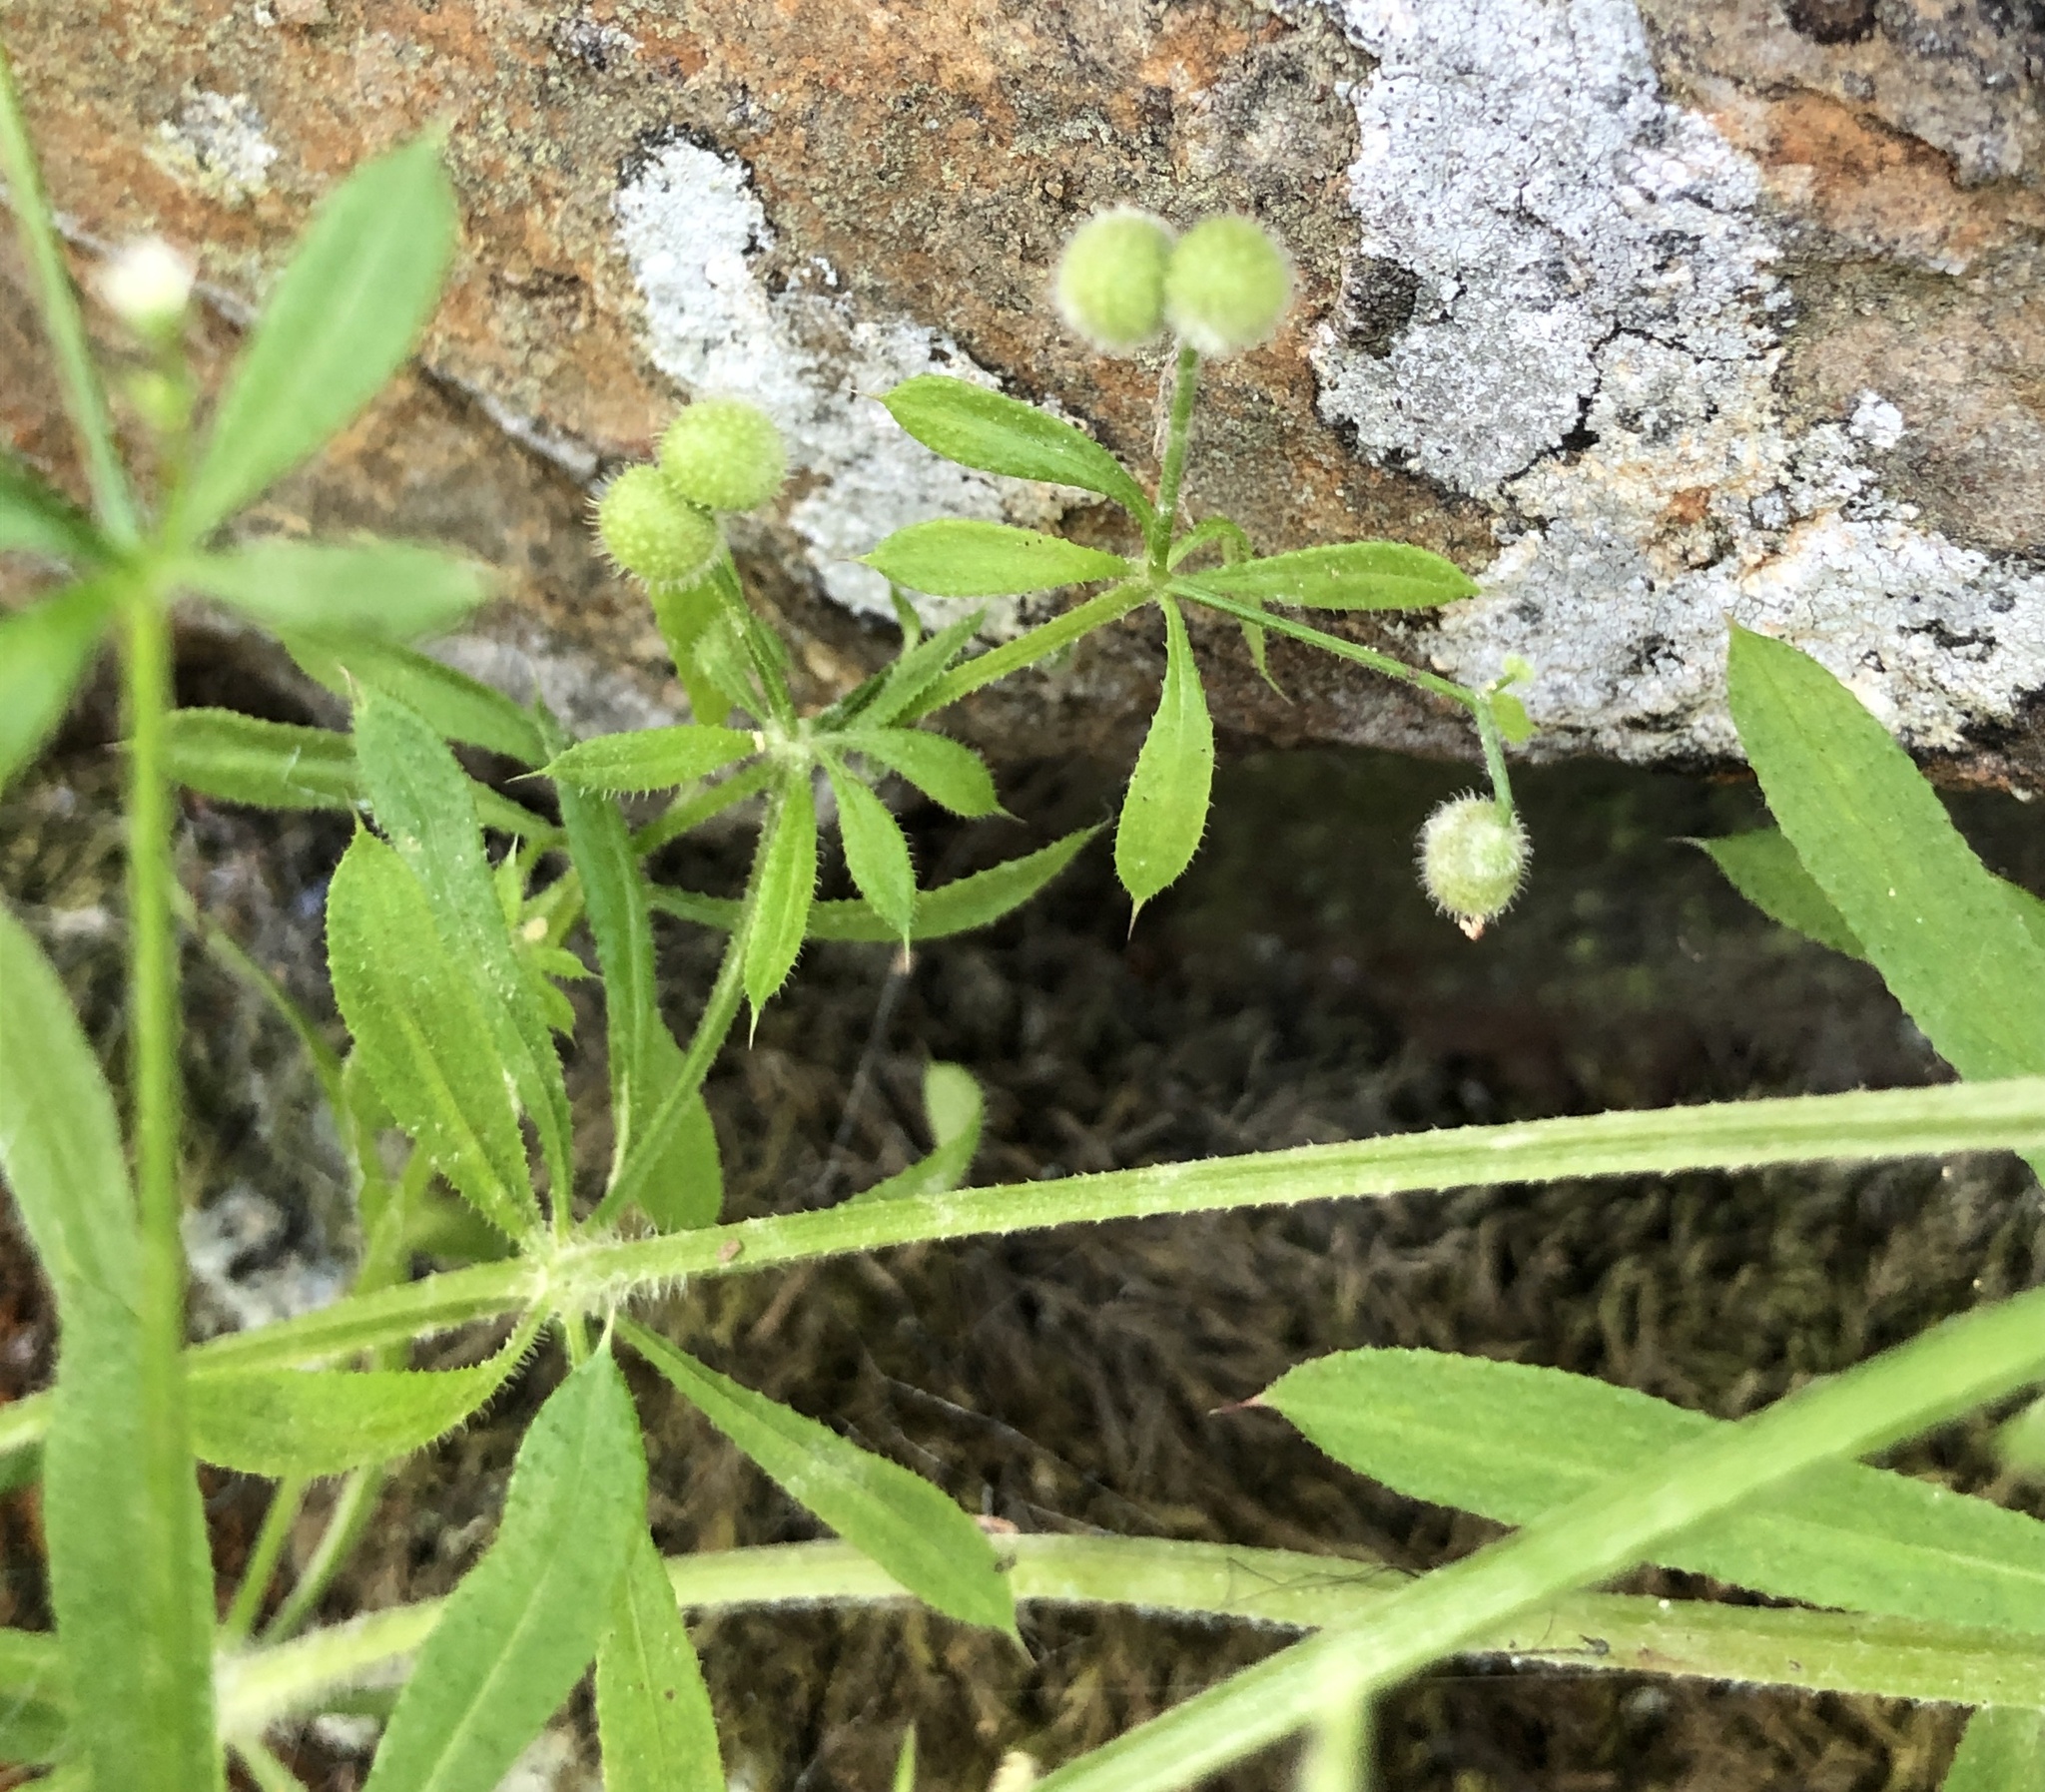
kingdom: Plantae
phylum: Tracheophyta
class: Magnoliopsida
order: Gentianales
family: Rubiaceae
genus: Galium
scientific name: Galium aparine
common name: Cleavers
